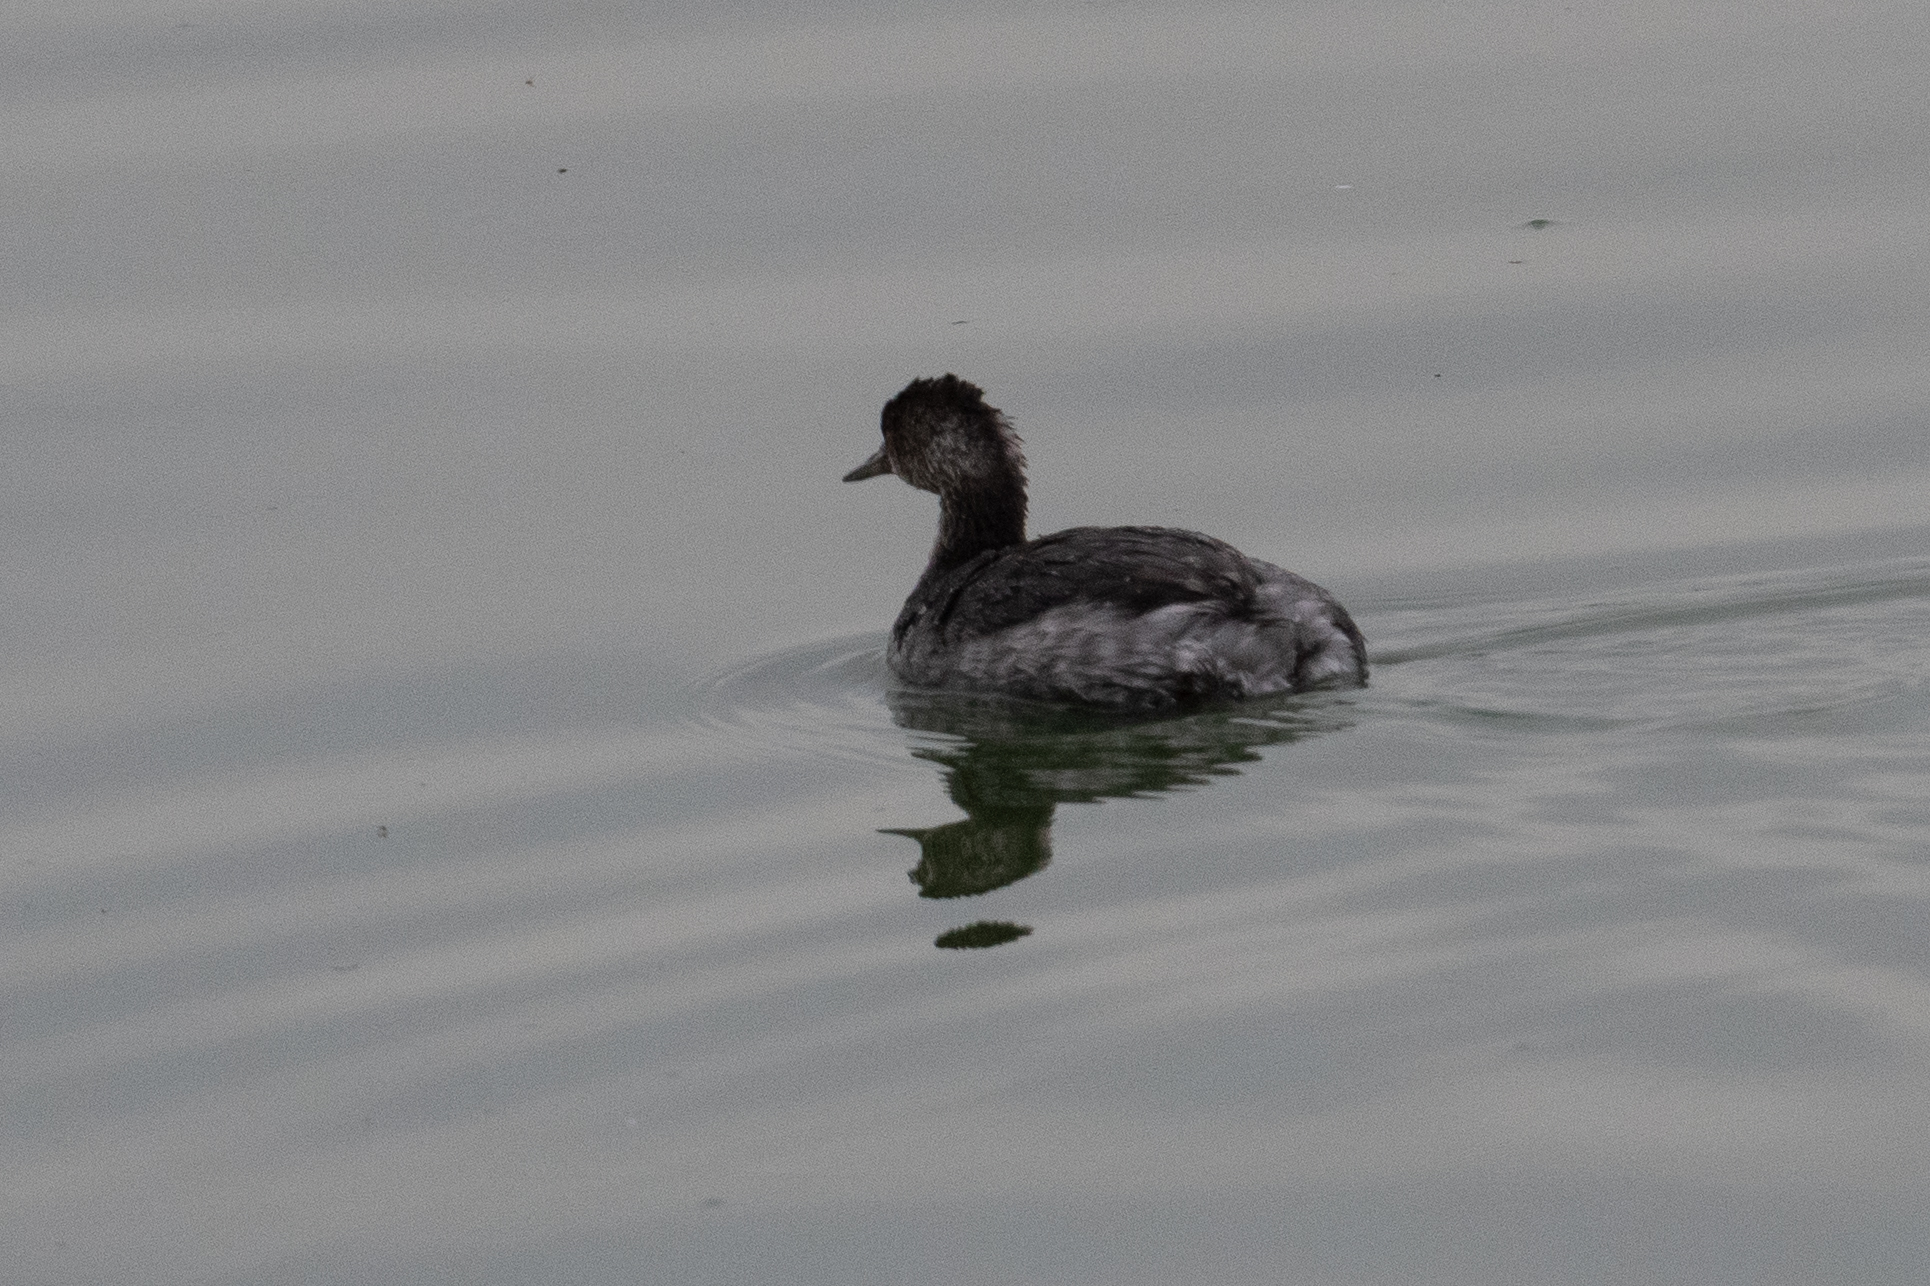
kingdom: Animalia
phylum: Chordata
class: Aves
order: Podicipediformes
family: Podicipedidae
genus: Podiceps
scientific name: Podiceps nigricollis
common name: Black-necked grebe
